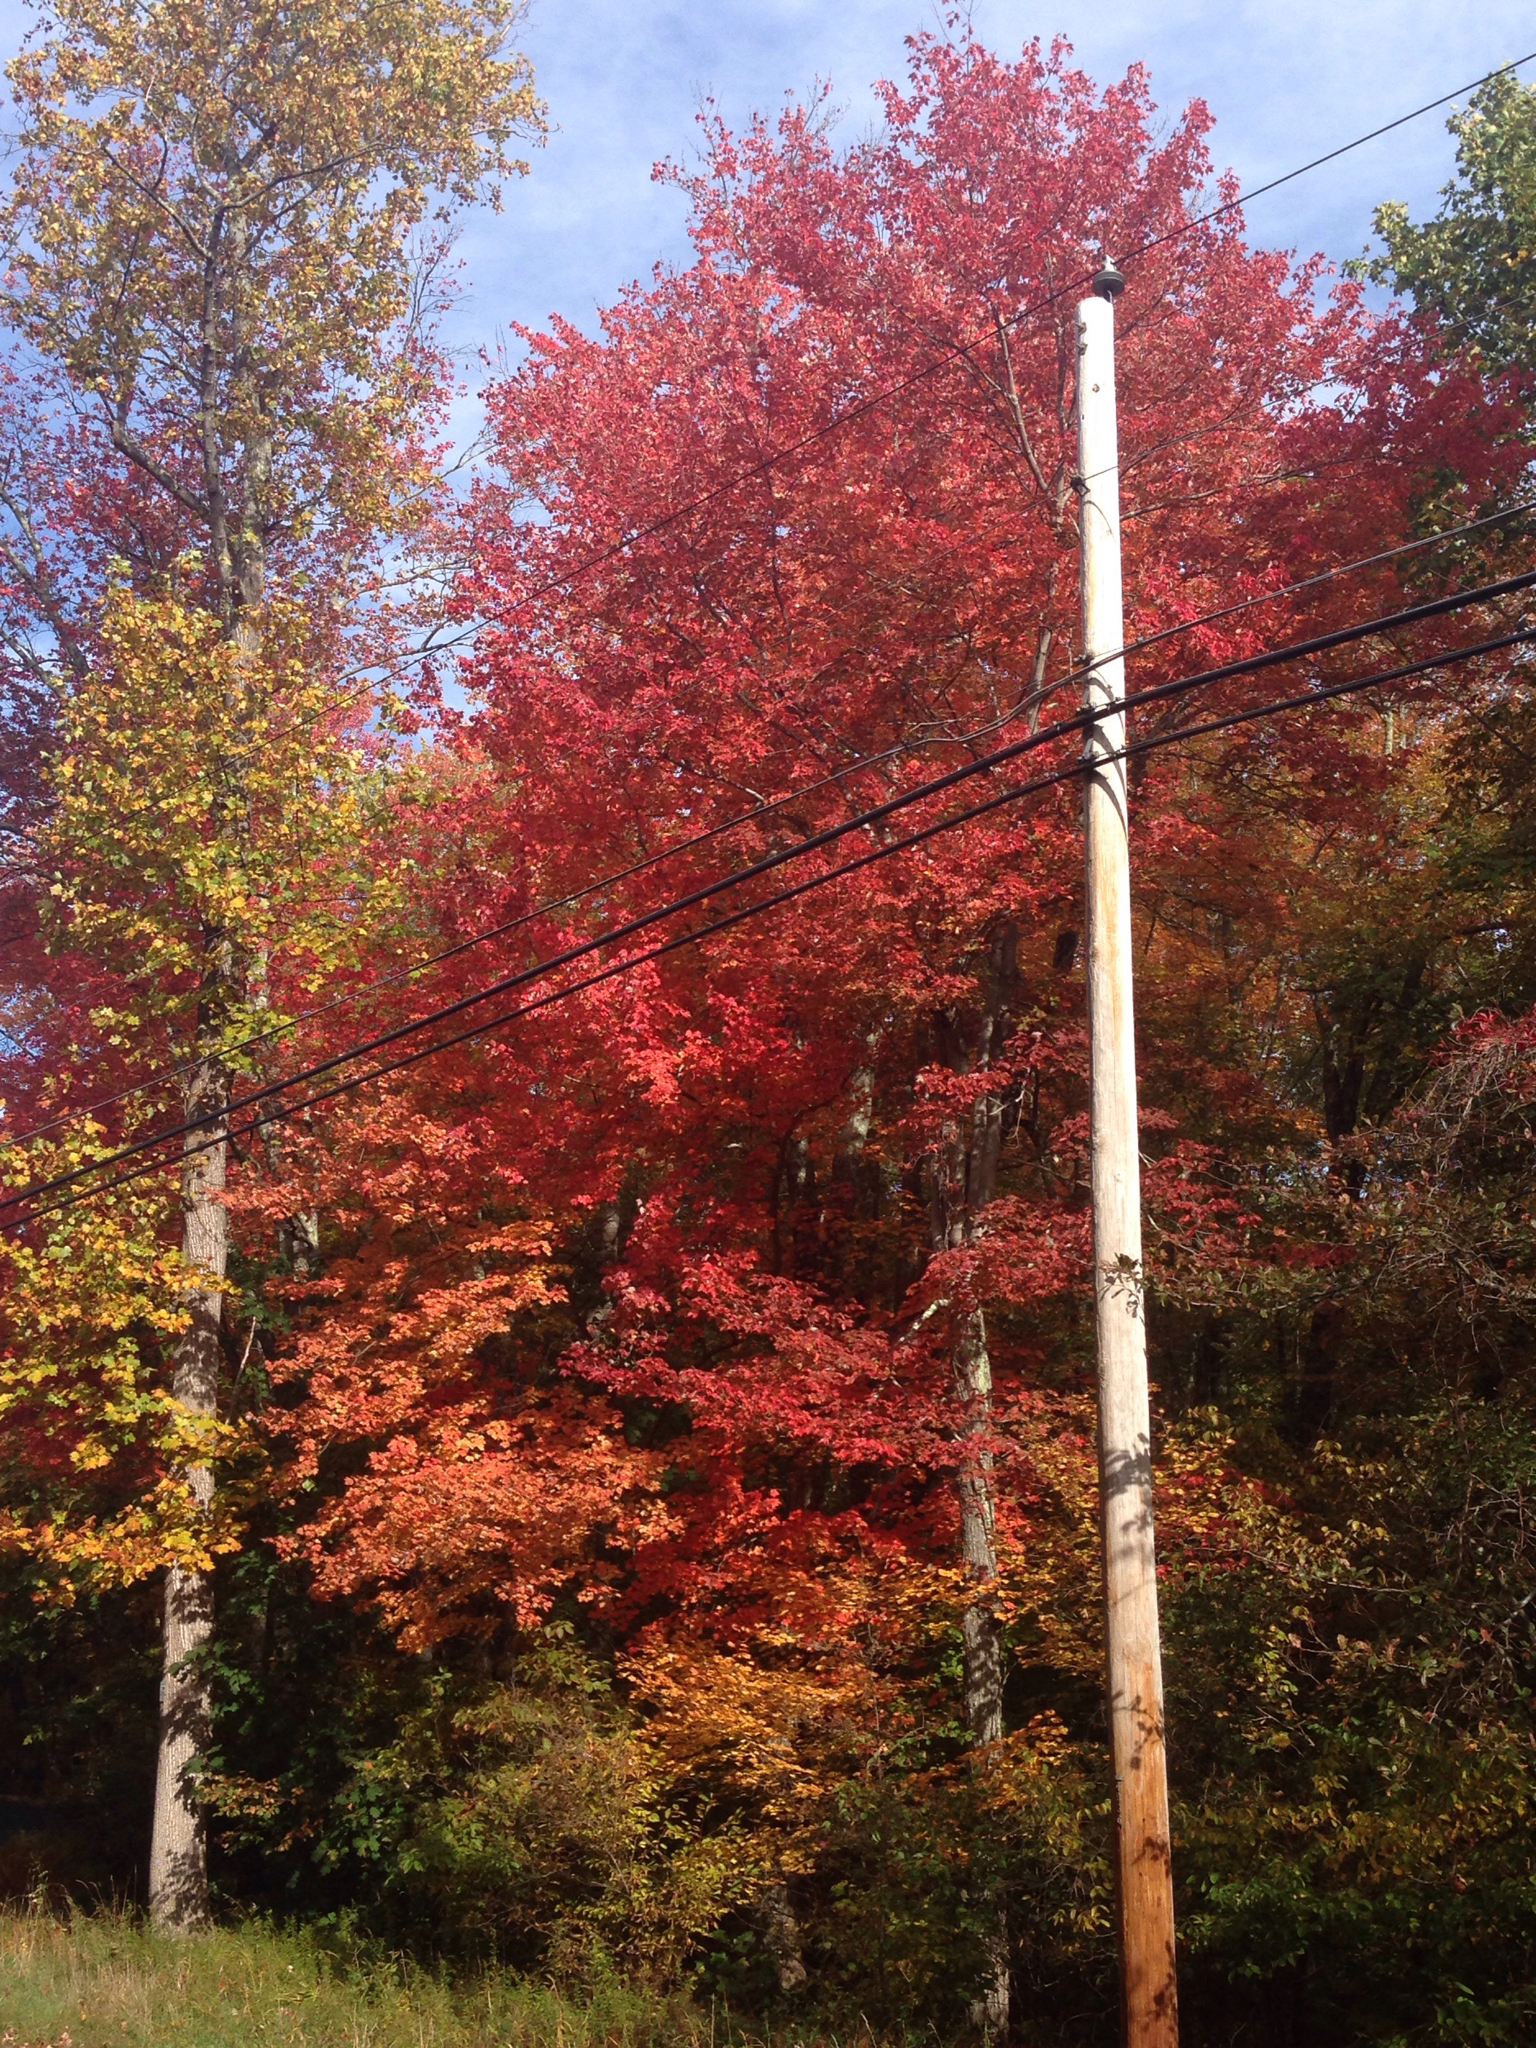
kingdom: Plantae
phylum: Tracheophyta
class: Magnoliopsida
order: Sapindales
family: Sapindaceae
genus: Acer
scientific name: Acer rubrum
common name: Red maple
